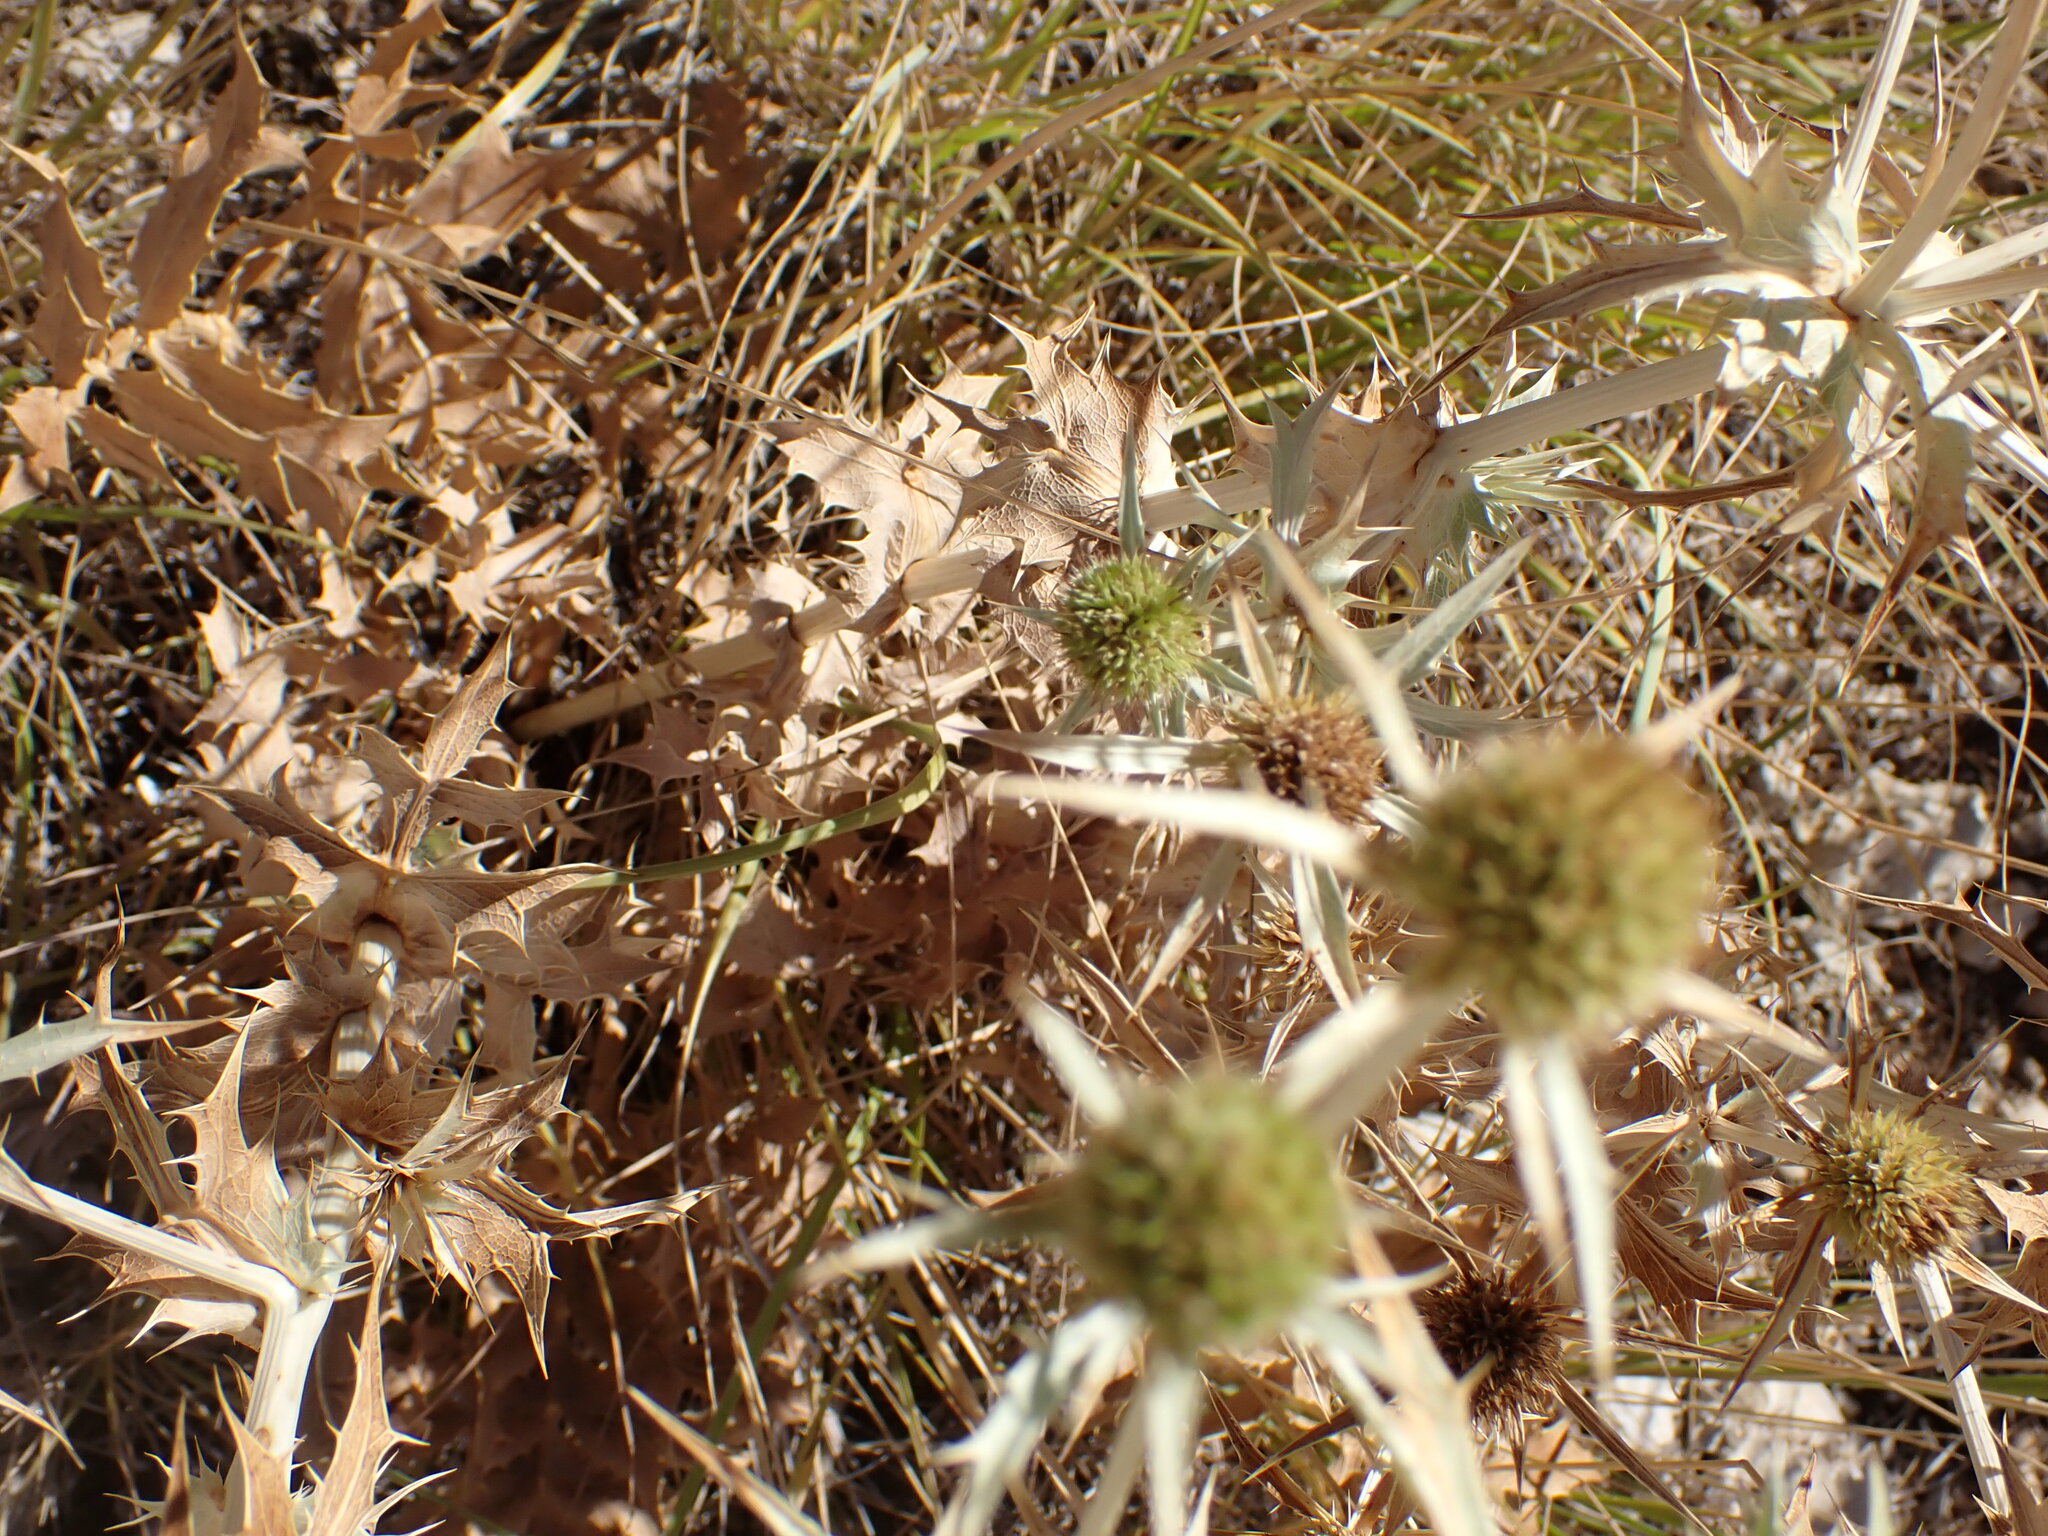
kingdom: Plantae
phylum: Tracheophyta
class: Magnoliopsida
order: Apiales
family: Apiaceae
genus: Eryngium
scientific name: Eryngium campestre
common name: Field eryngo
